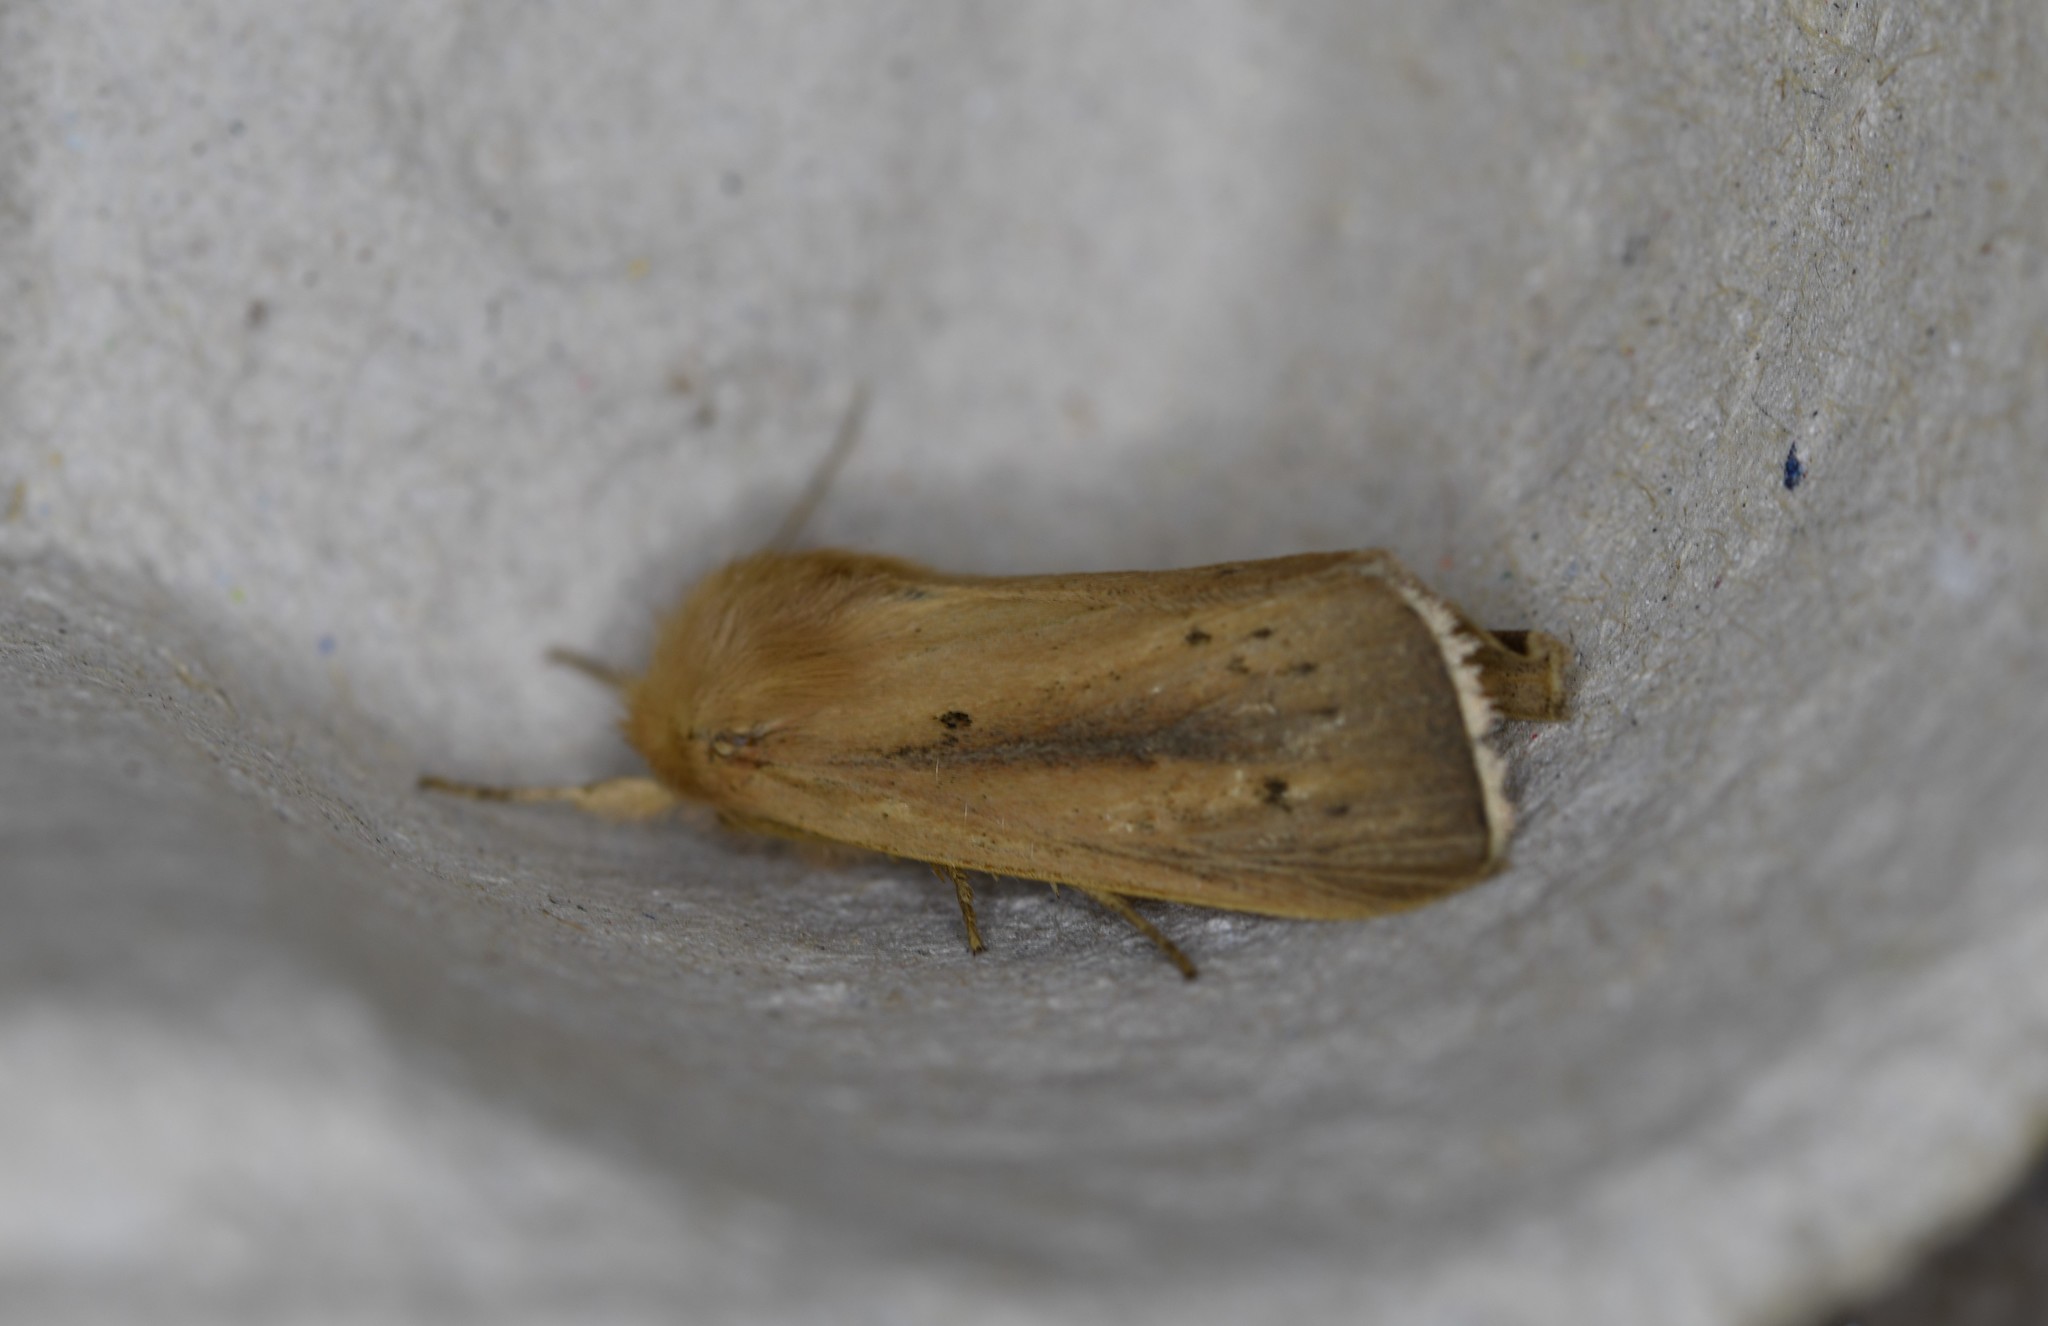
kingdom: Animalia
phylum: Arthropoda
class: Insecta
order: Lepidoptera
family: Noctuidae
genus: Sesamia
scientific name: Sesamia nonagrioides
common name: Pink stem borer
